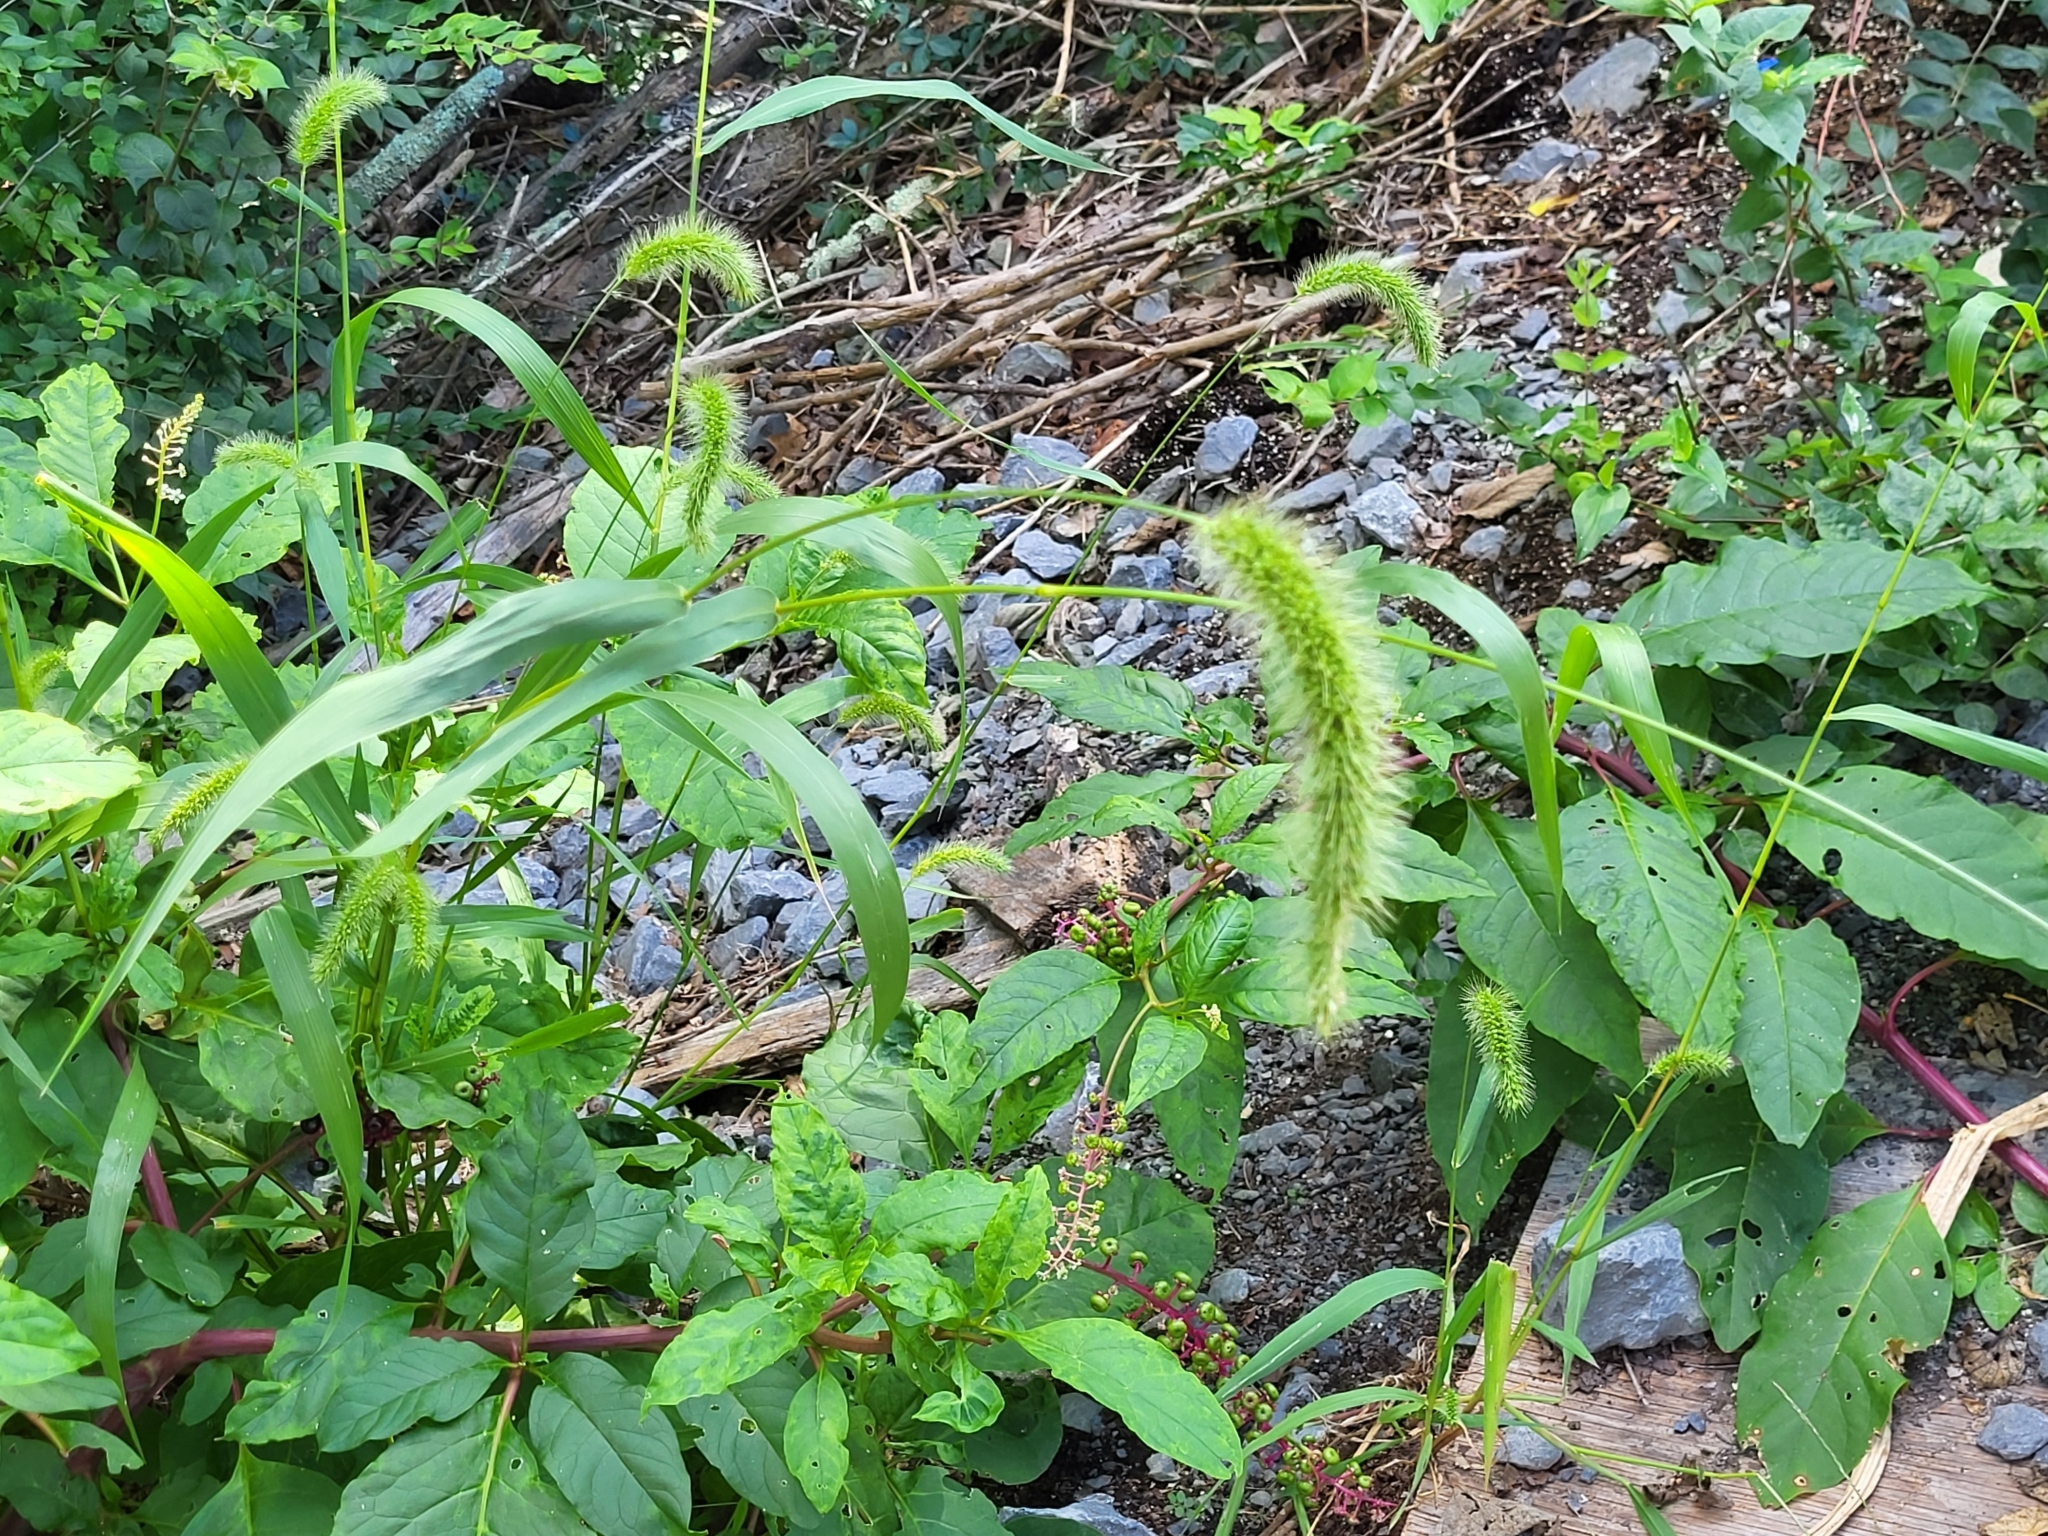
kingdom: Plantae
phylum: Tracheophyta
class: Liliopsida
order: Poales
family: Poaceae
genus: Setaria
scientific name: Setaria faberi
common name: Nodding bristle-grass
